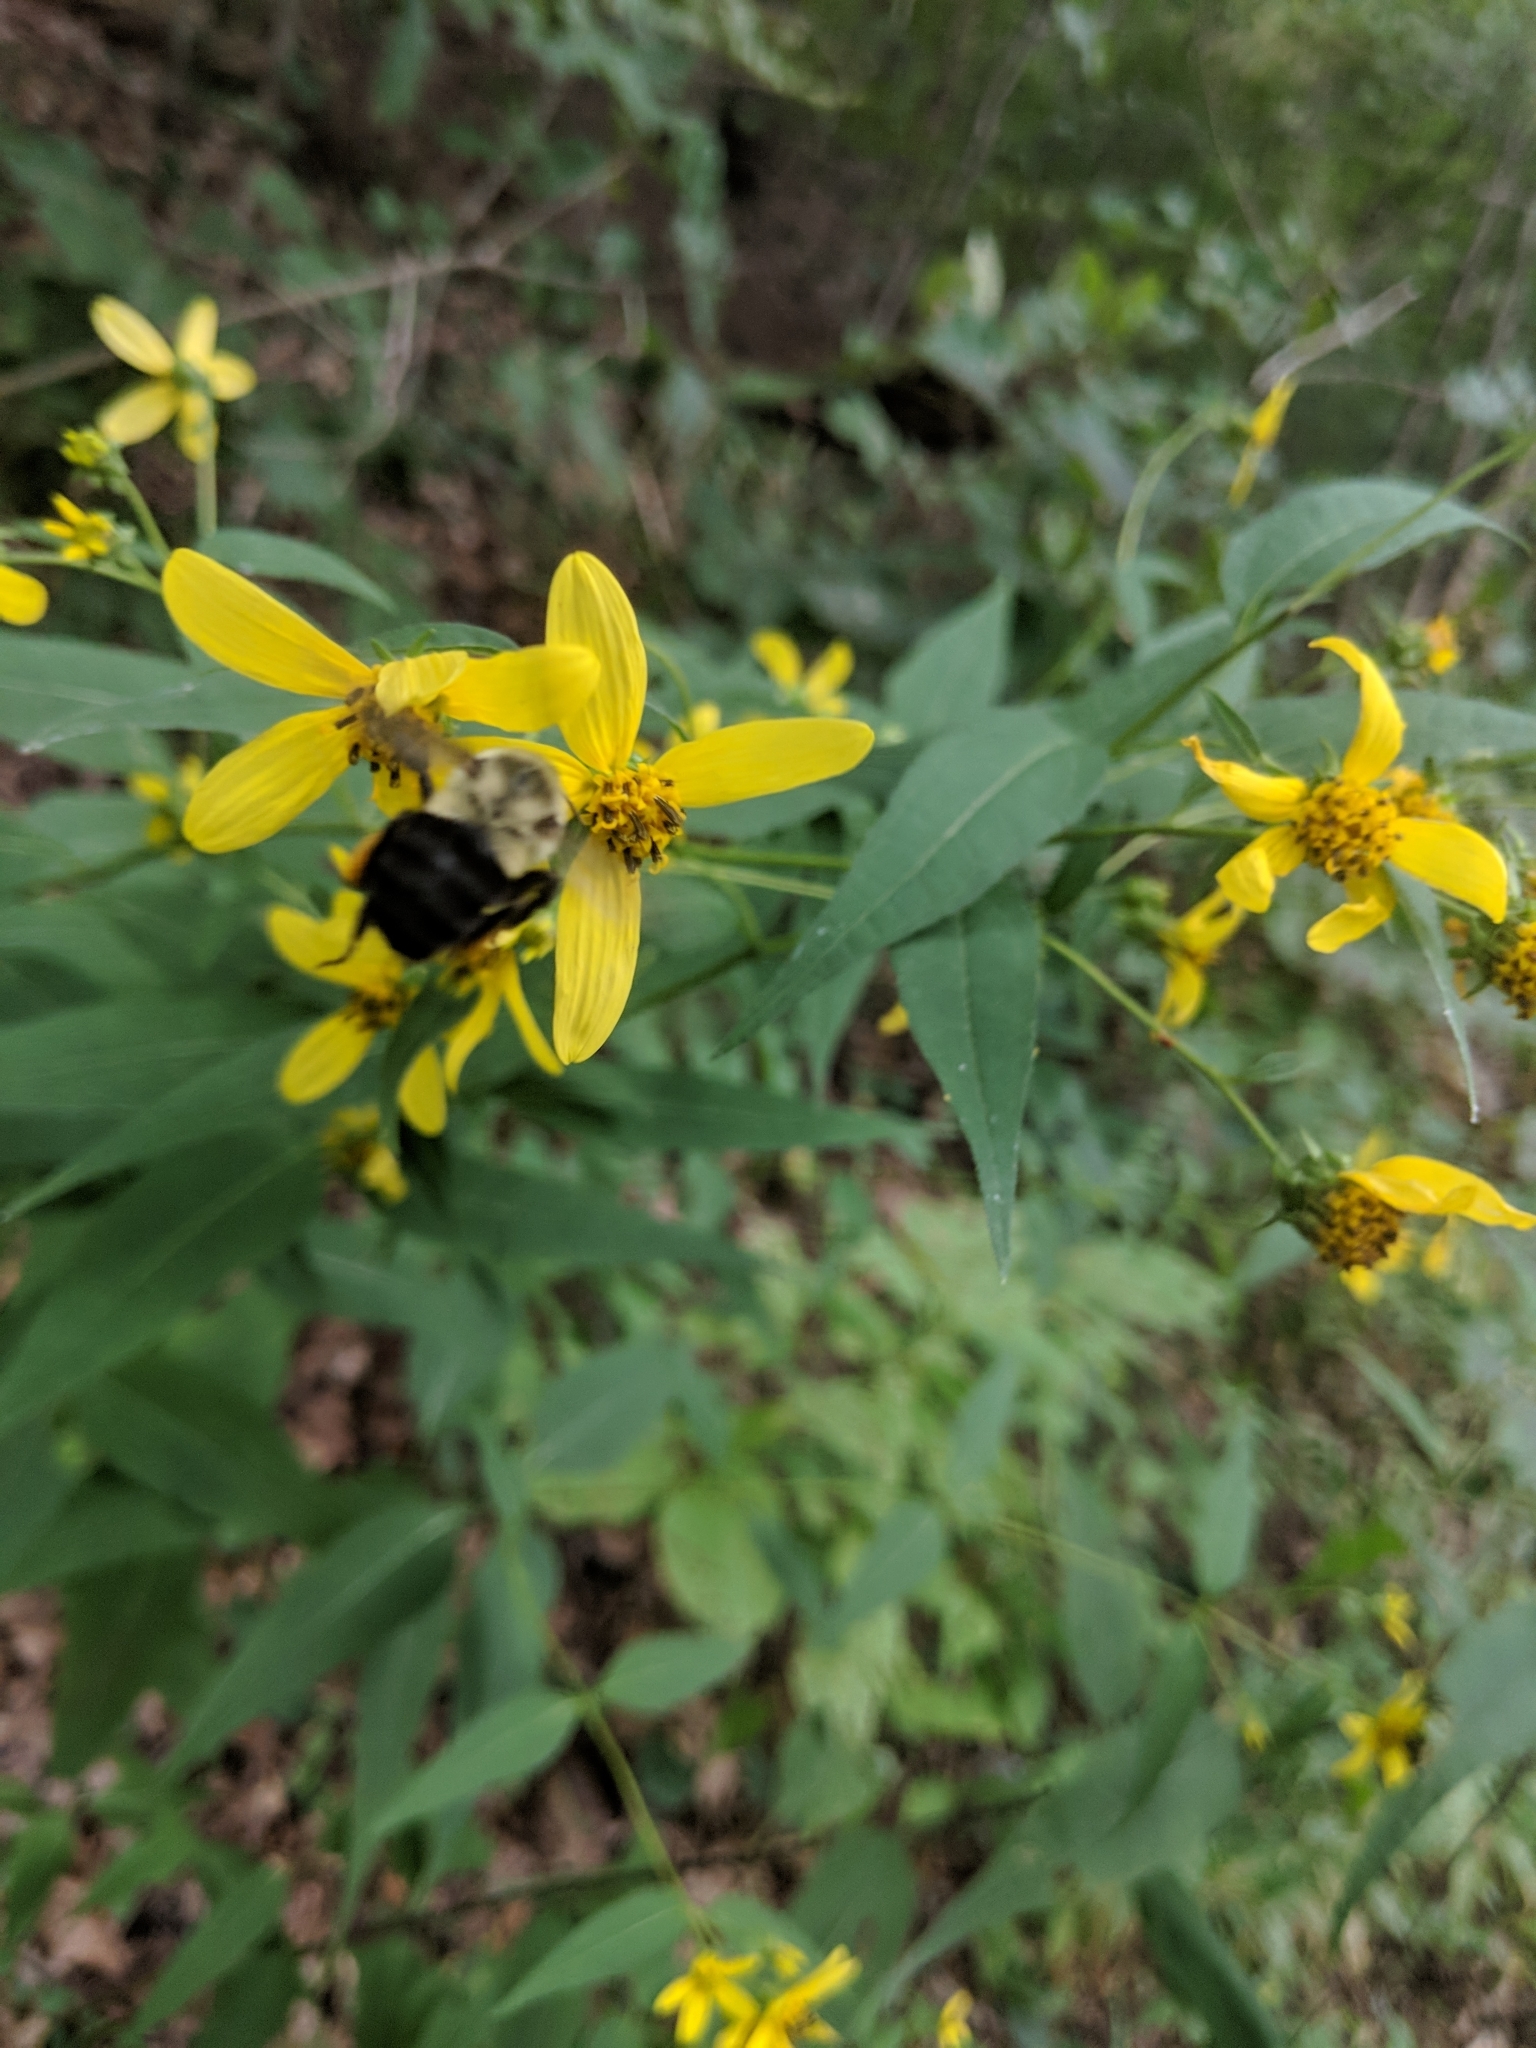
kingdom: Animalia
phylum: Arthropoda
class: Insecta
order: Hymenoptera
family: Apidae
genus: Bombus
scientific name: Bombus impatiens
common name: Common eastern bumble bee
